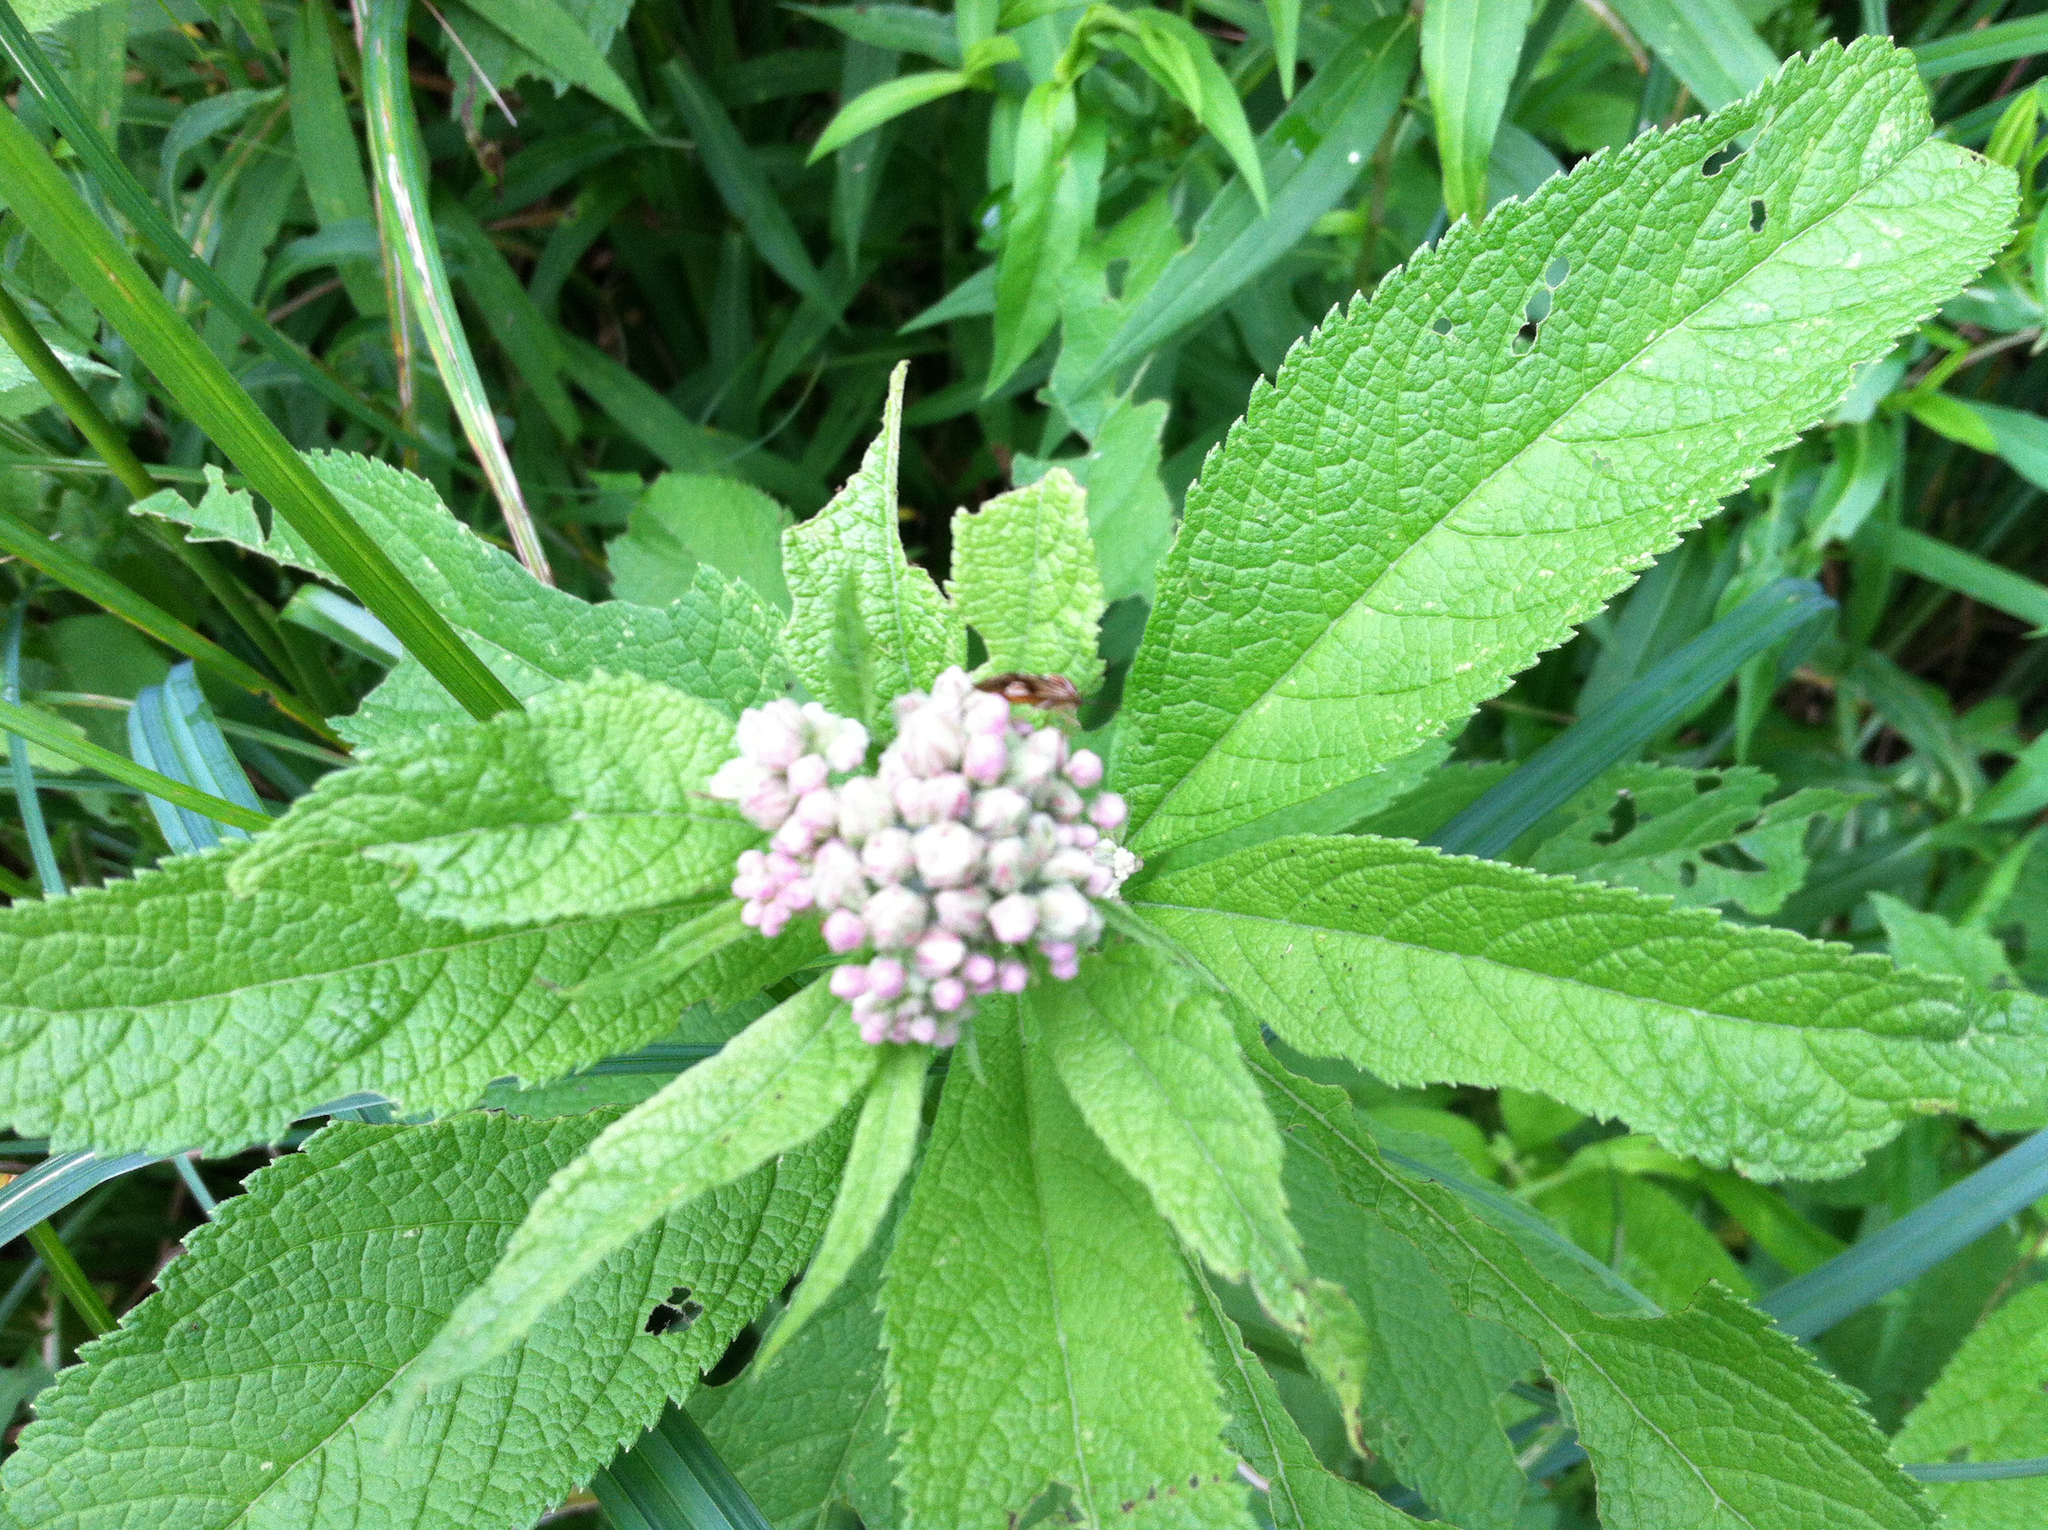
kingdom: Plantae
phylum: Tracheophyta
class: Magnoliopsida
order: Asterales
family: Asteraceae
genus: Eutrochium
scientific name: Eutrochium maculatum
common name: Spotted joe pye weed
